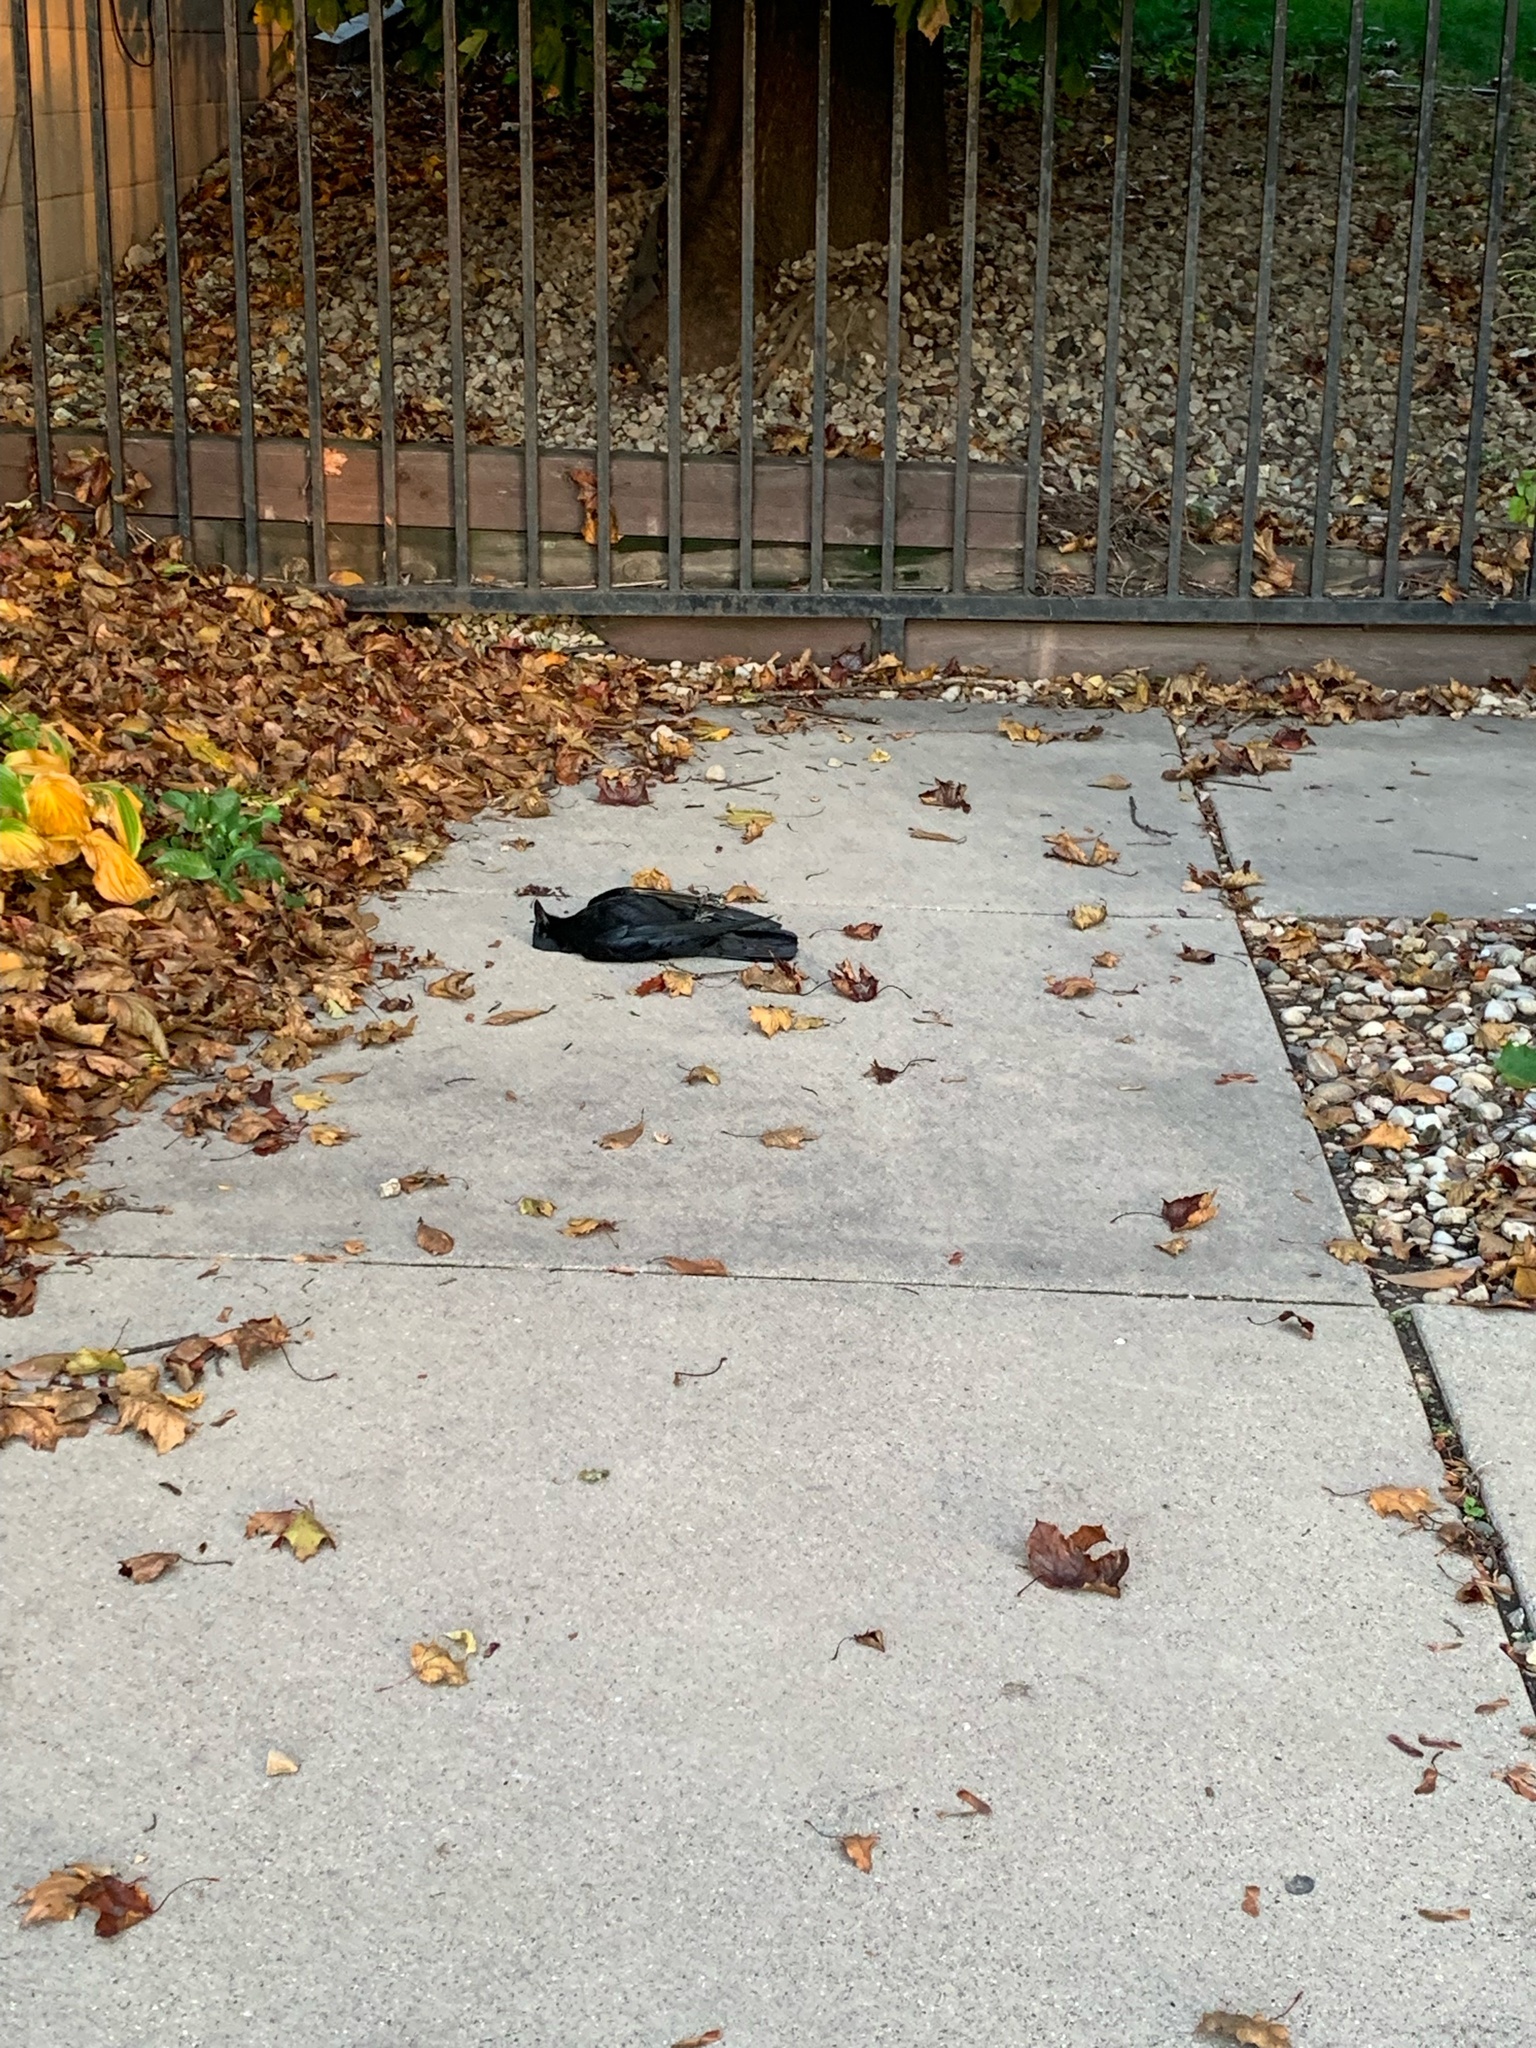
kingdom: Animalia
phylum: Chordata
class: Aves
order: Passeriformes
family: Corvidae
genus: Corvus
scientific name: Corvus brachyrhynchos
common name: American crow
